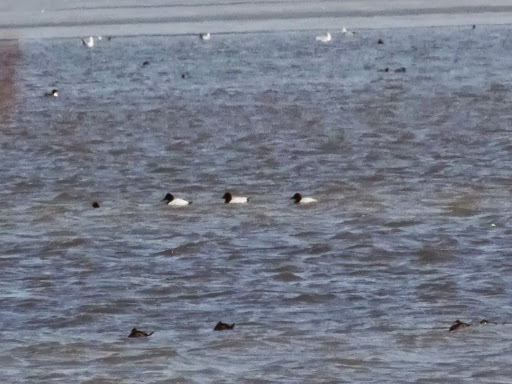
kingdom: Animalia
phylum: Chordata
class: Aves
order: Anseriformes
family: Anatidae
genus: Aythya
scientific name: Aythya valisineria
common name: Canvasback
